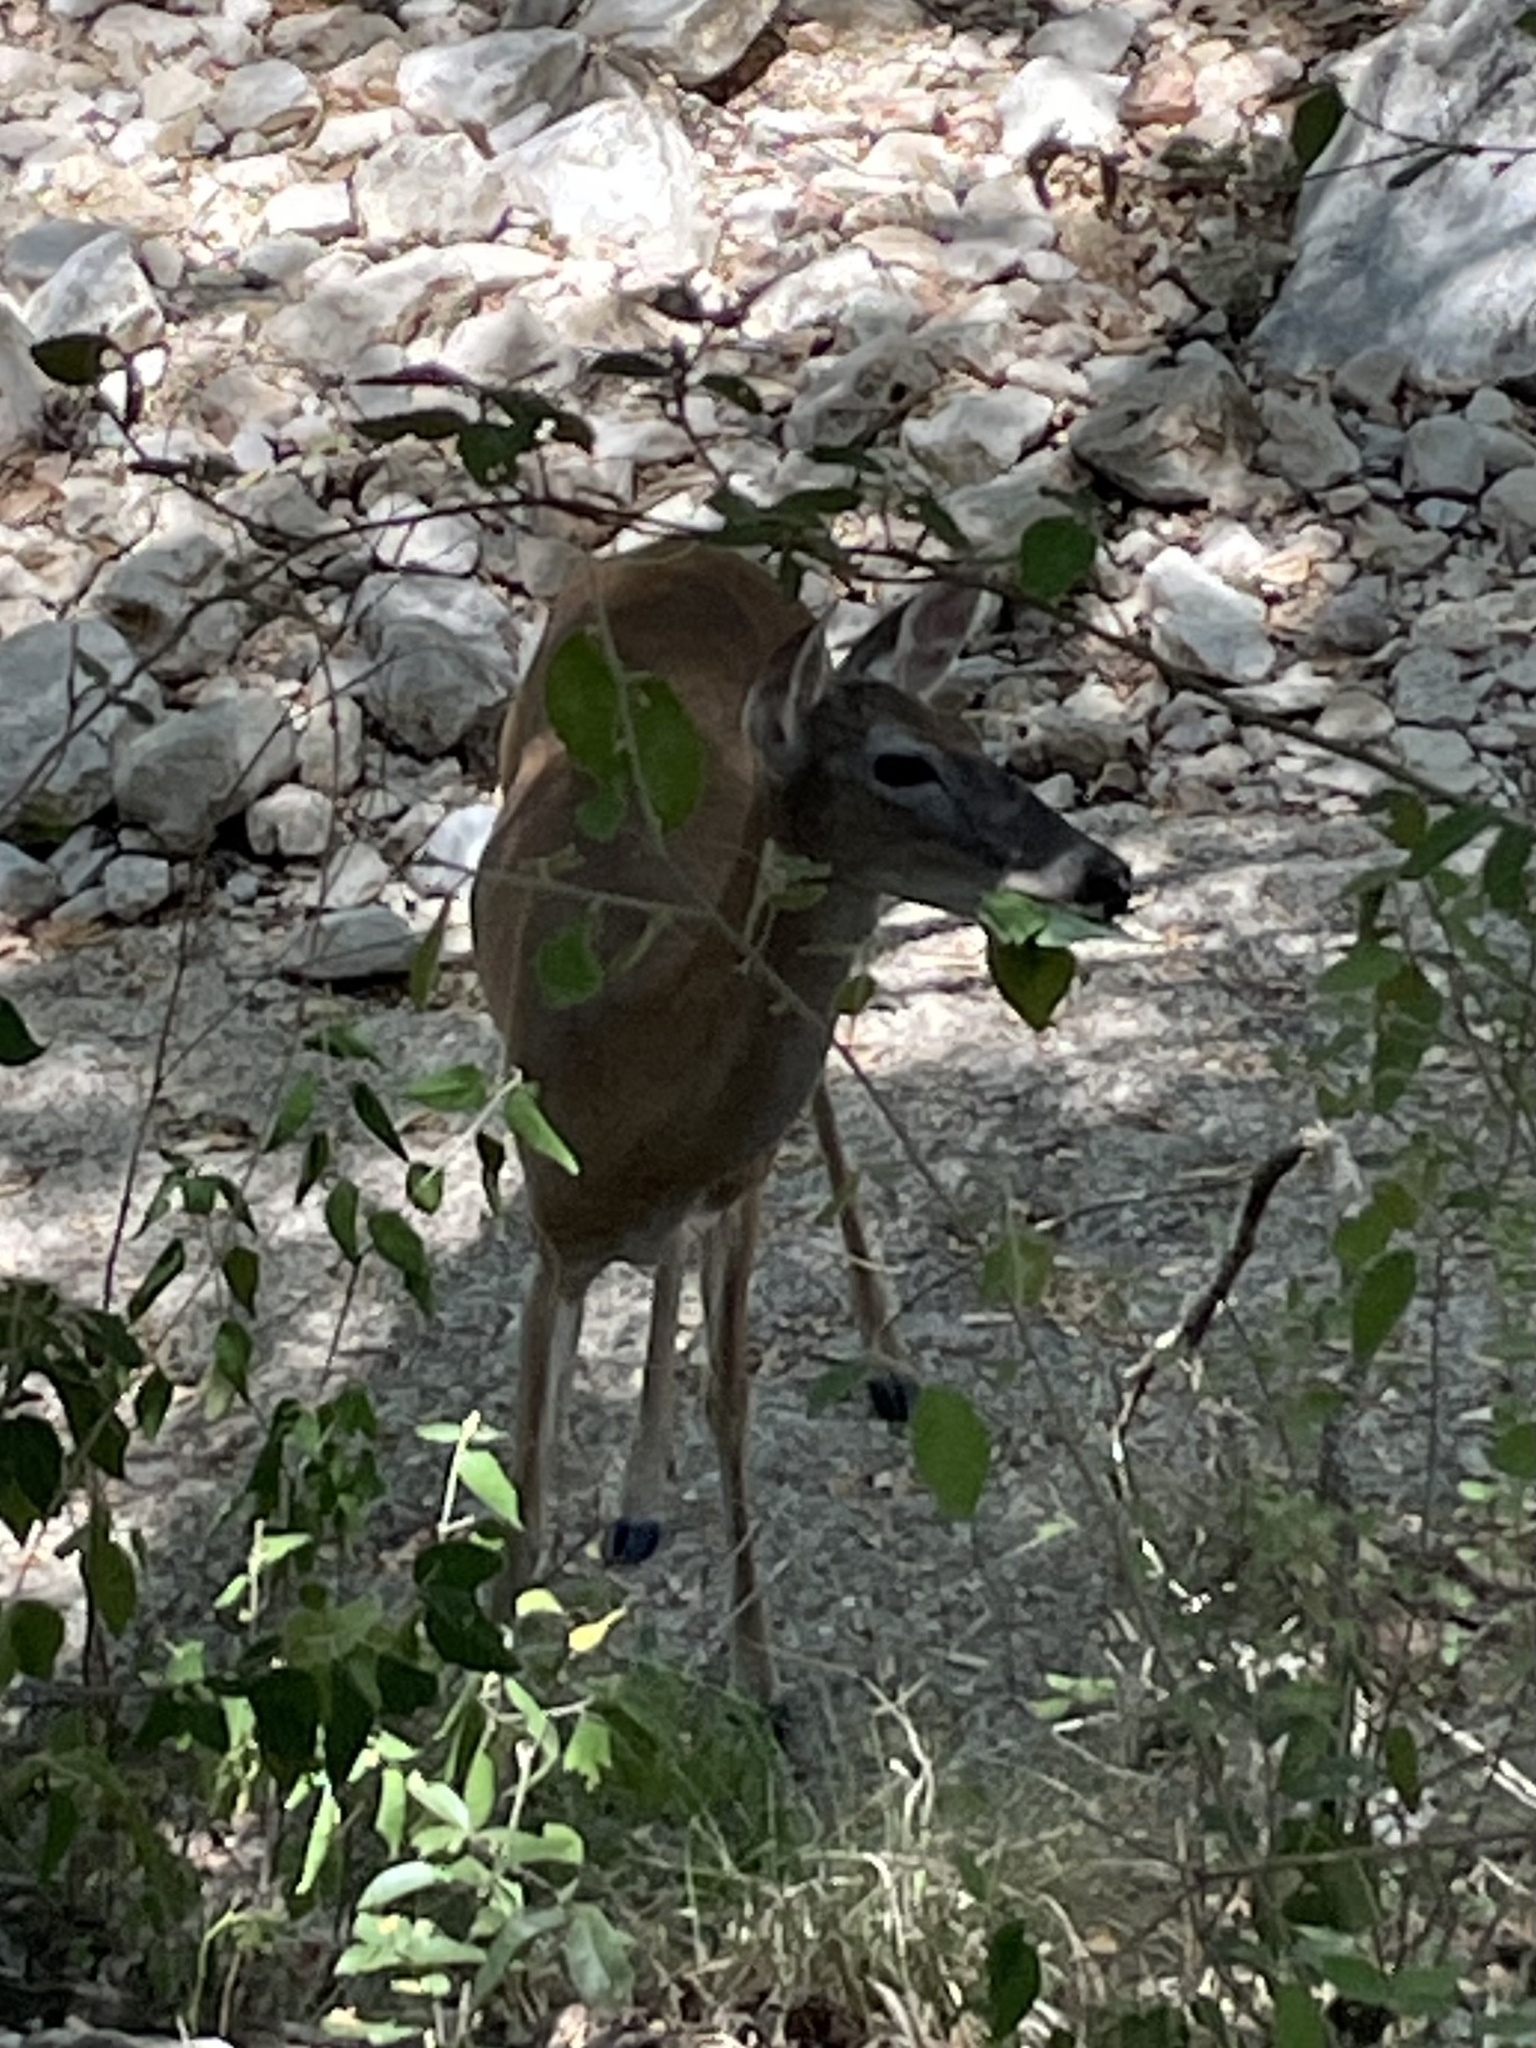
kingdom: Animalia
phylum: Chordata
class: Mammalia
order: Artiodactyla
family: Cervidae
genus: Odocoileus
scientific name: Odocoileus virginianus
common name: White-tailed deer
